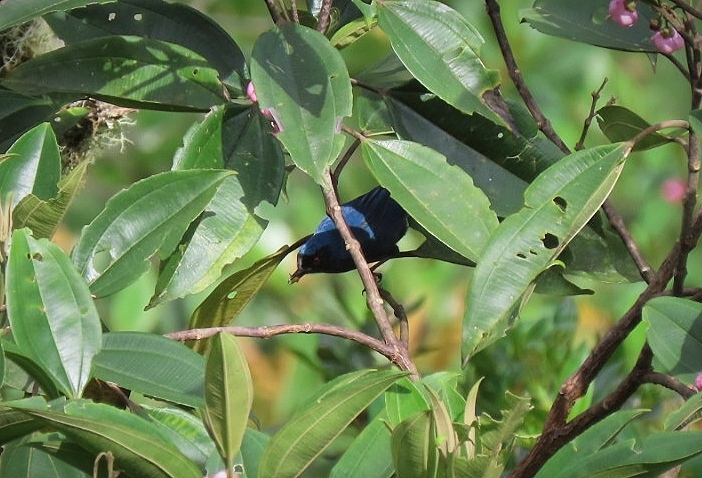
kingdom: Animalia
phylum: Chordata
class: Aves
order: Passeriformes
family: Thraupidae
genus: Diglossa
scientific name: Diglossa cyanea
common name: Masked flowerpiercer
